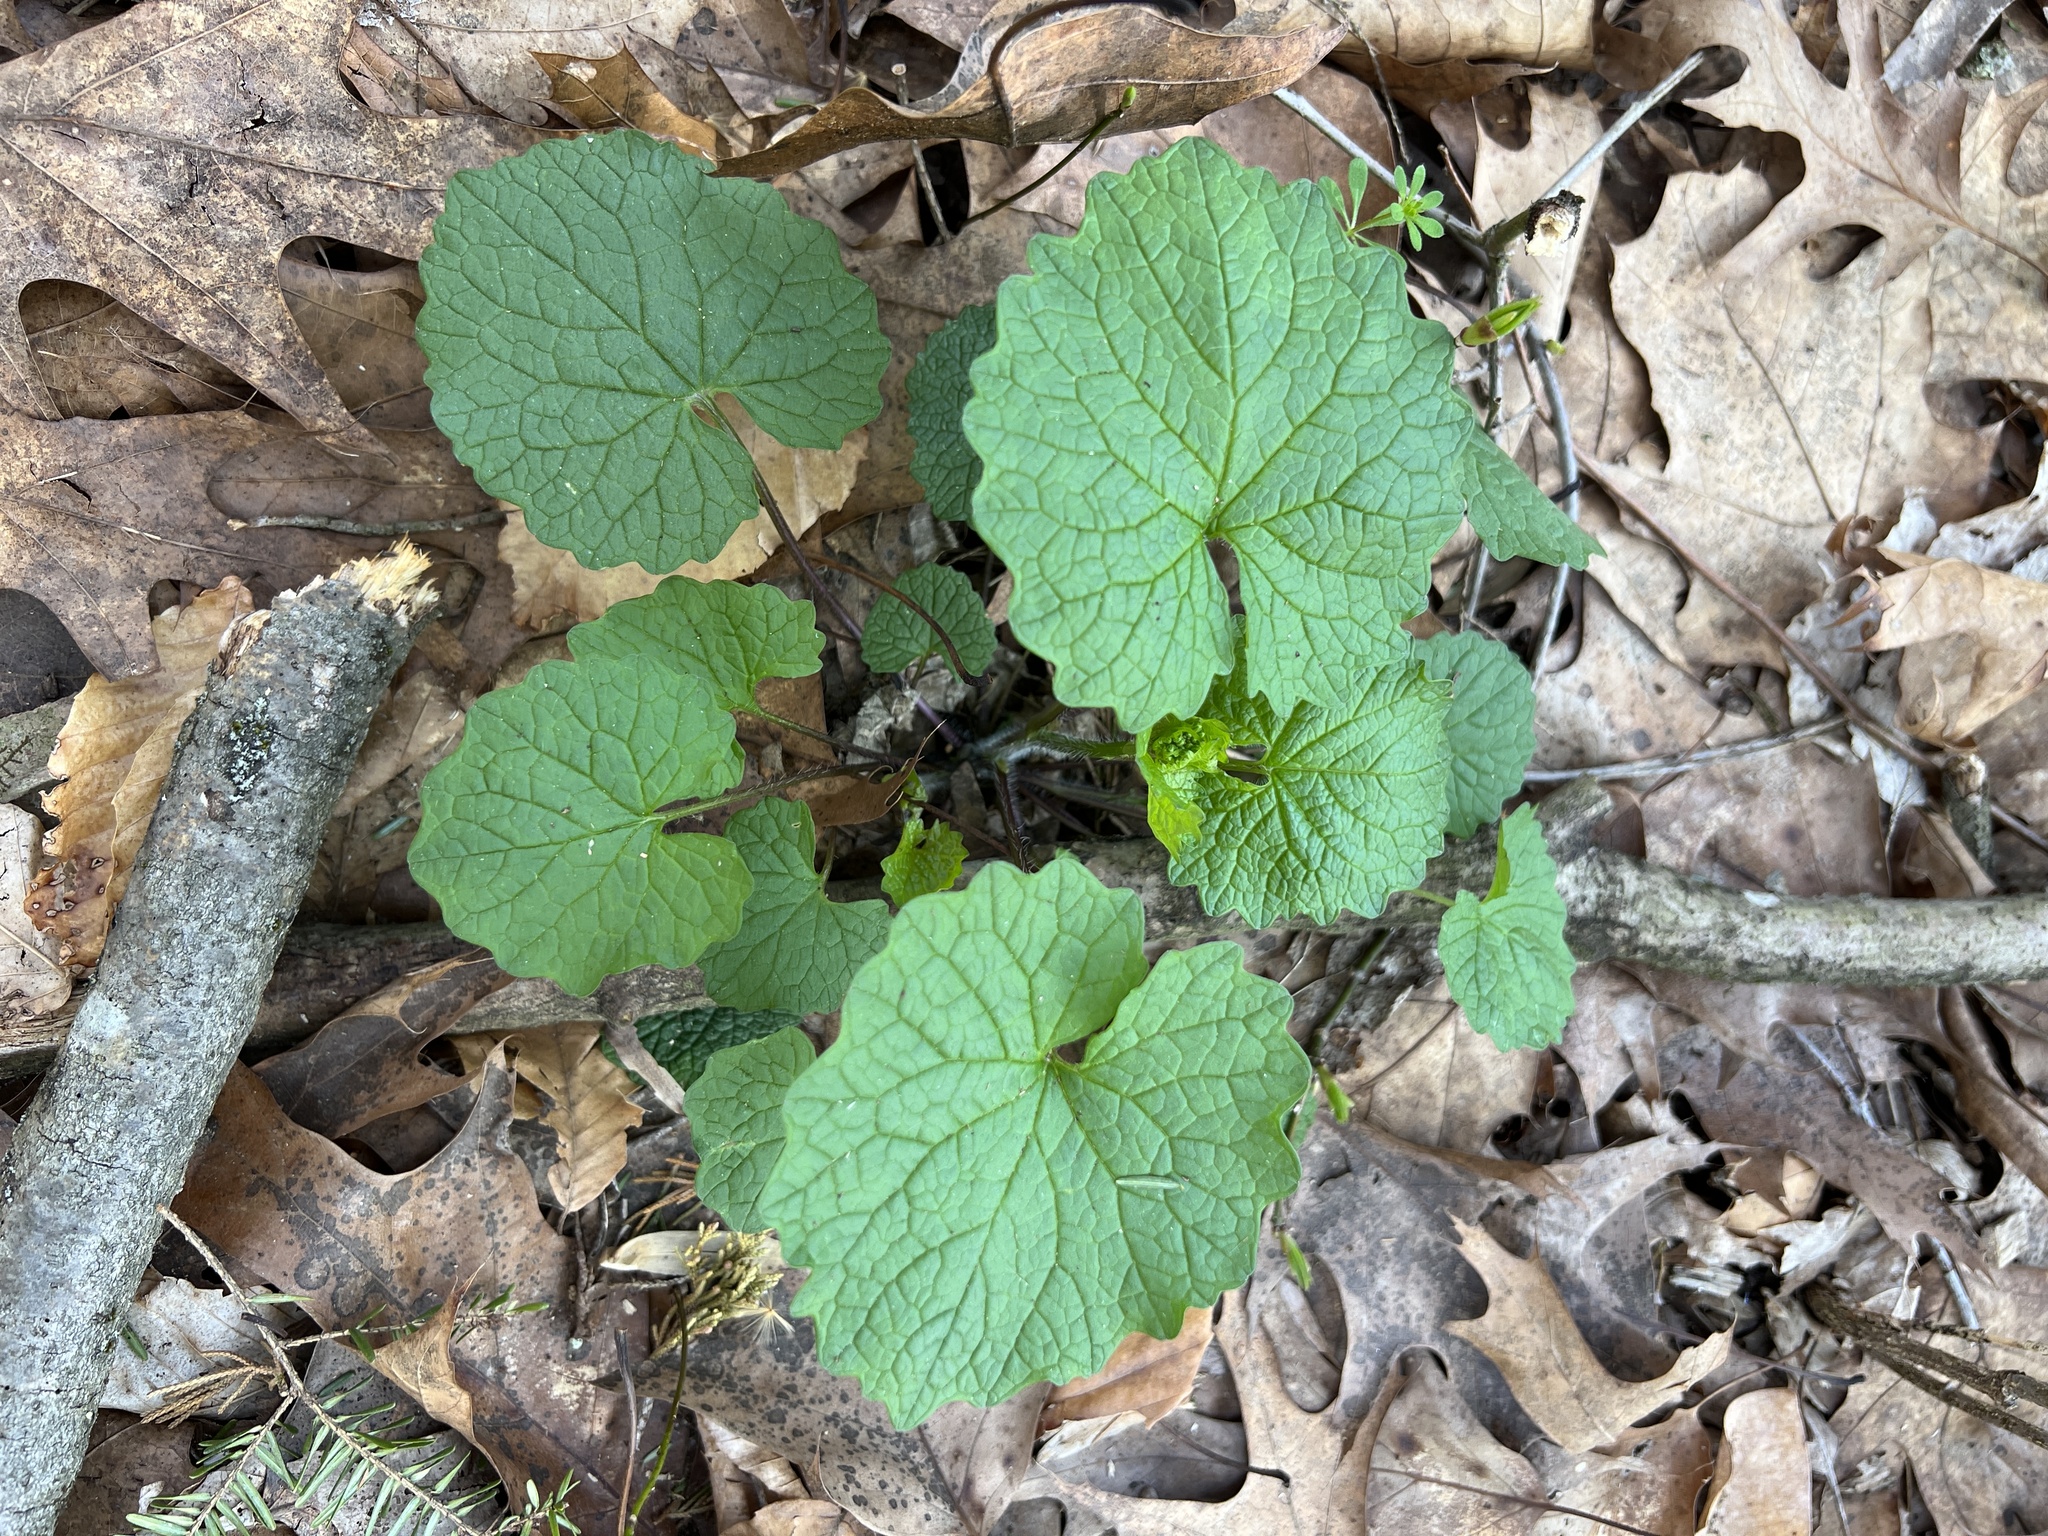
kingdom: Plantae
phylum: Tracheophyta
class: Magnoliopsida
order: Brassicales
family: Brassicaceae
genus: Alliaria
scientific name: Alliaria petiolata
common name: Garlic mustard
